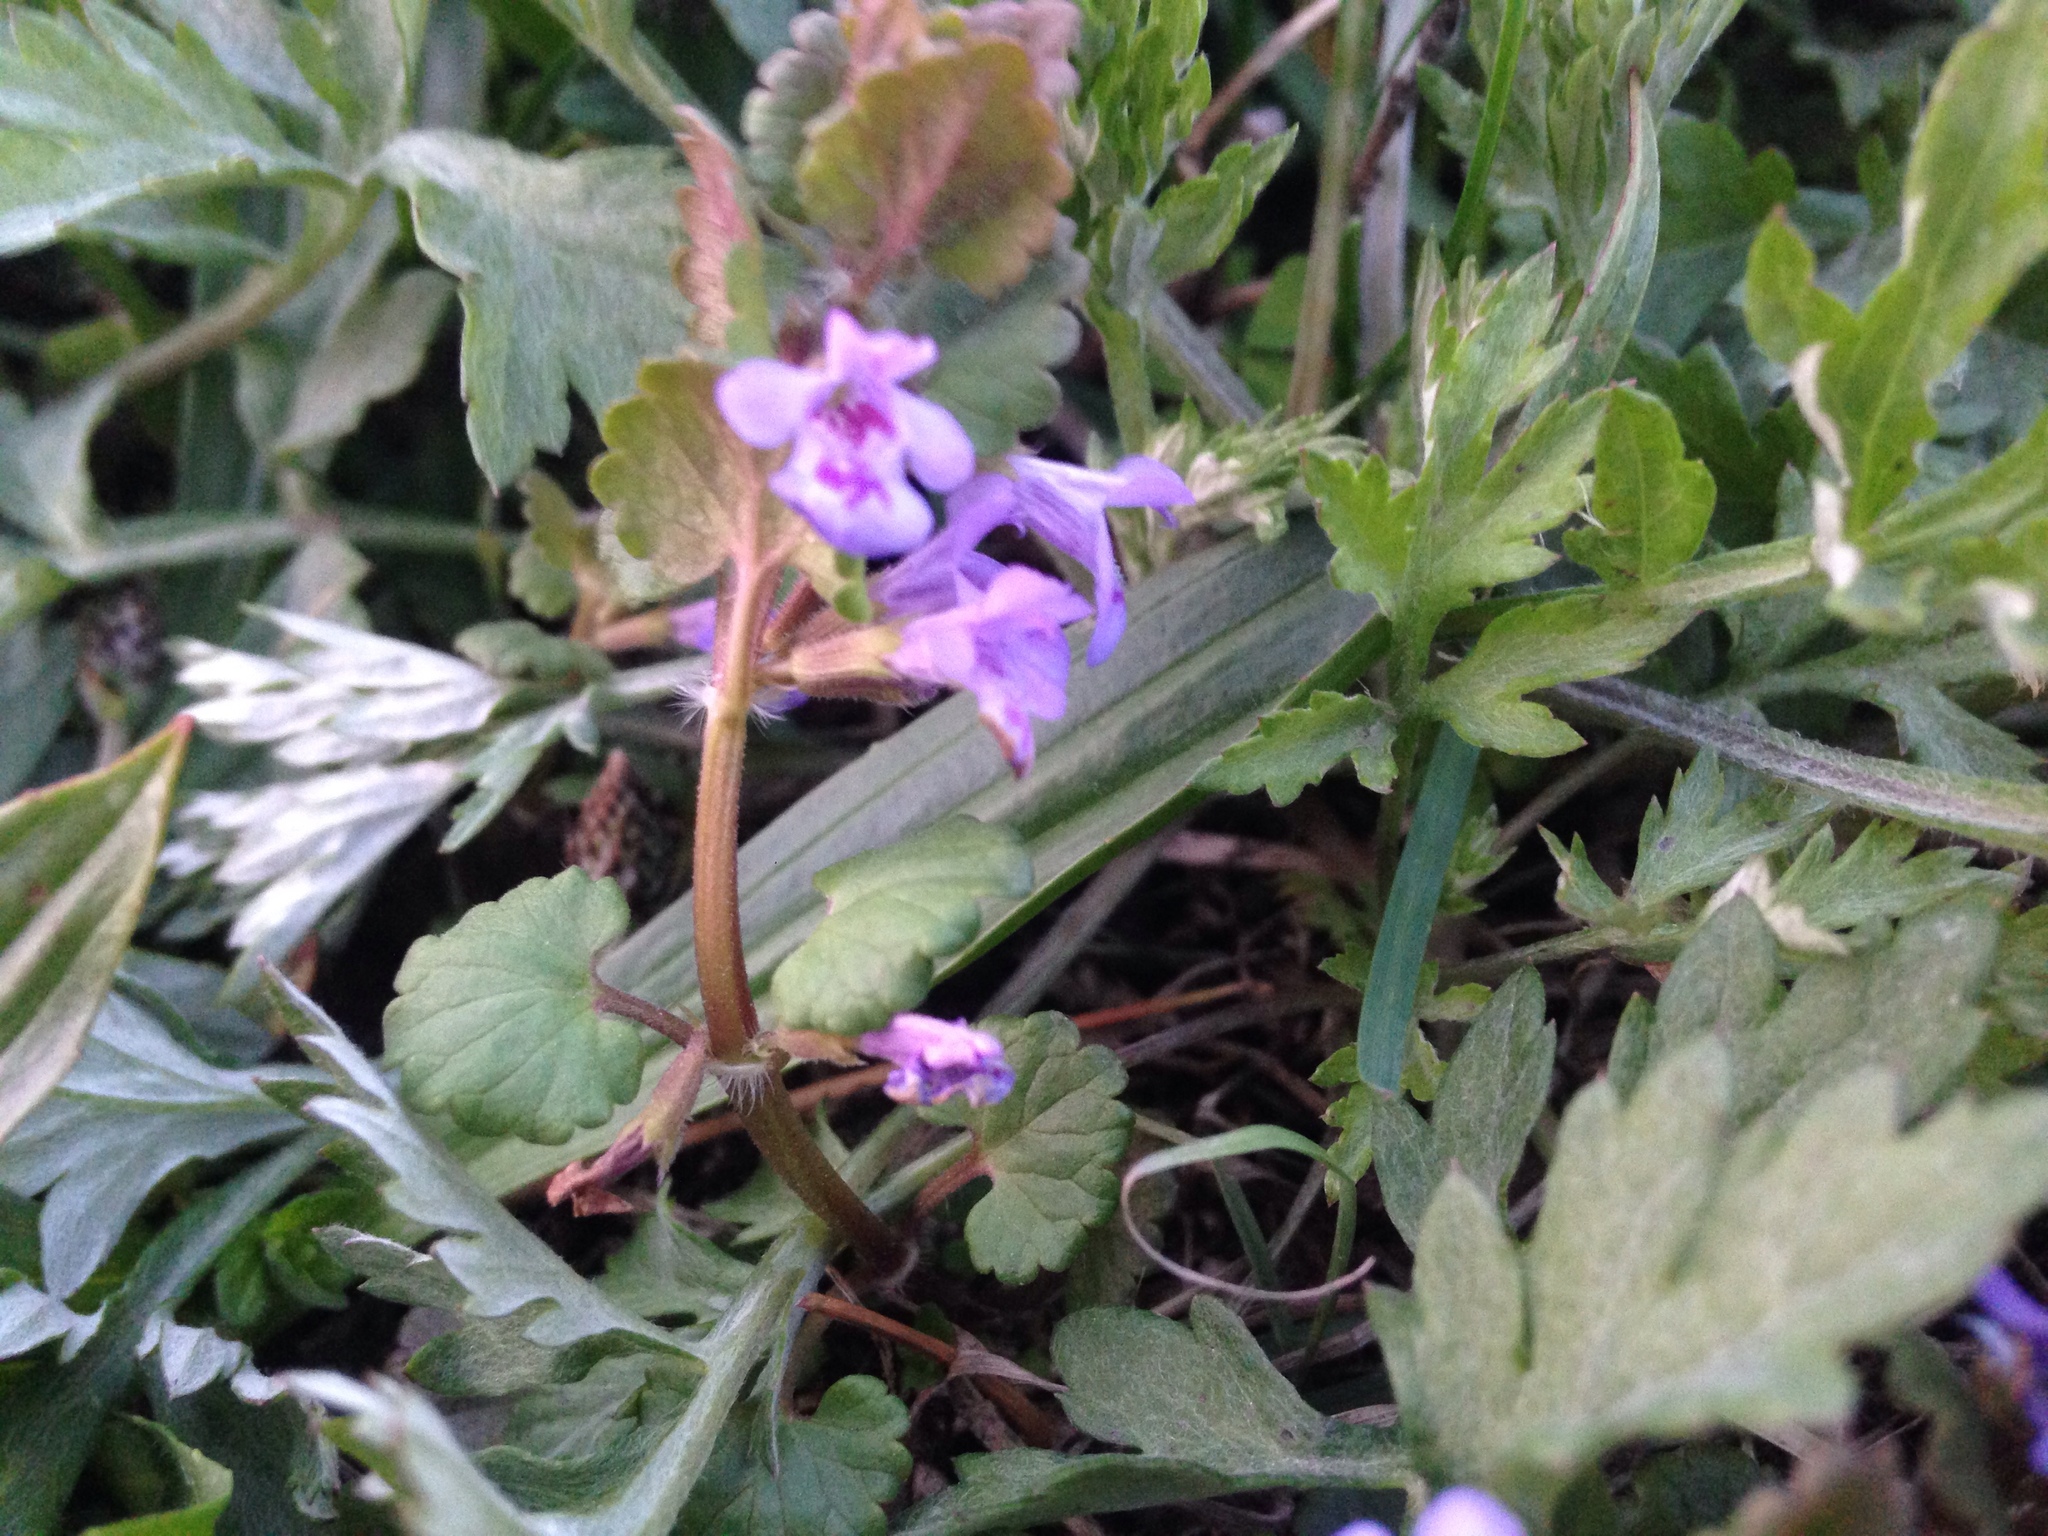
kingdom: Plantae
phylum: Tracheophyta
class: Magnoliopsida
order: Lamiales
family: Lamiaceae
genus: Glechoma
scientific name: Glechoma hederacea
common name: Ground ivy
